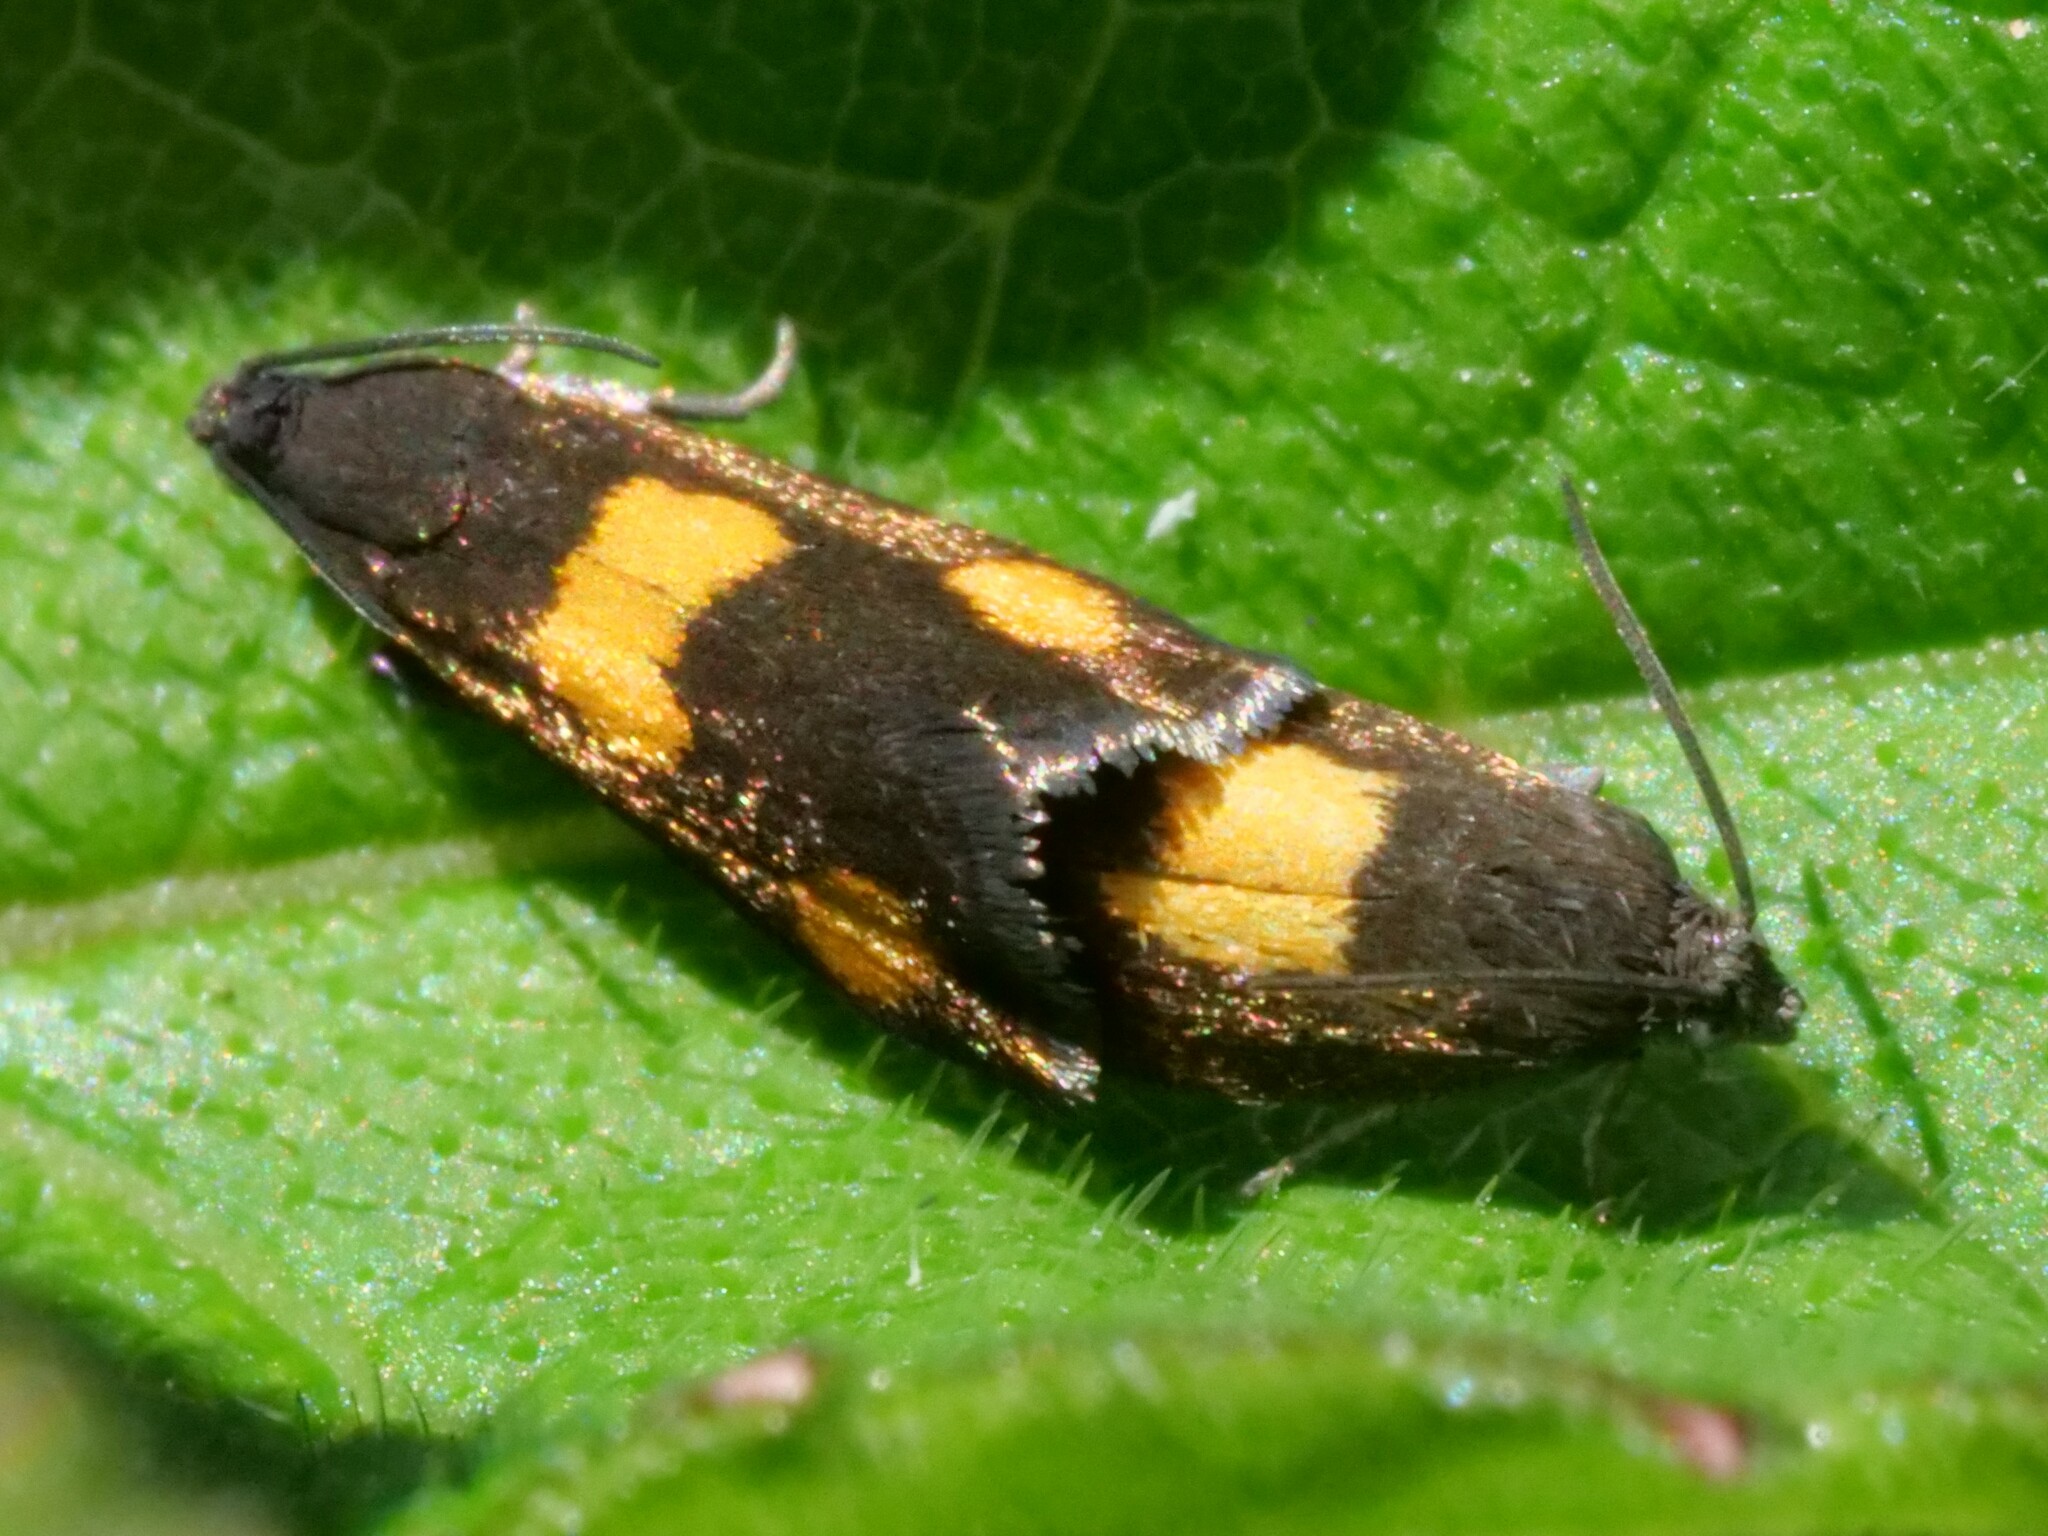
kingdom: Animalia
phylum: Arthropoda
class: Insecta
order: Lepidoptera
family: Tortricidae
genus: Pammene
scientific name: Pammene aurana
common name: Orange-spot piercer
